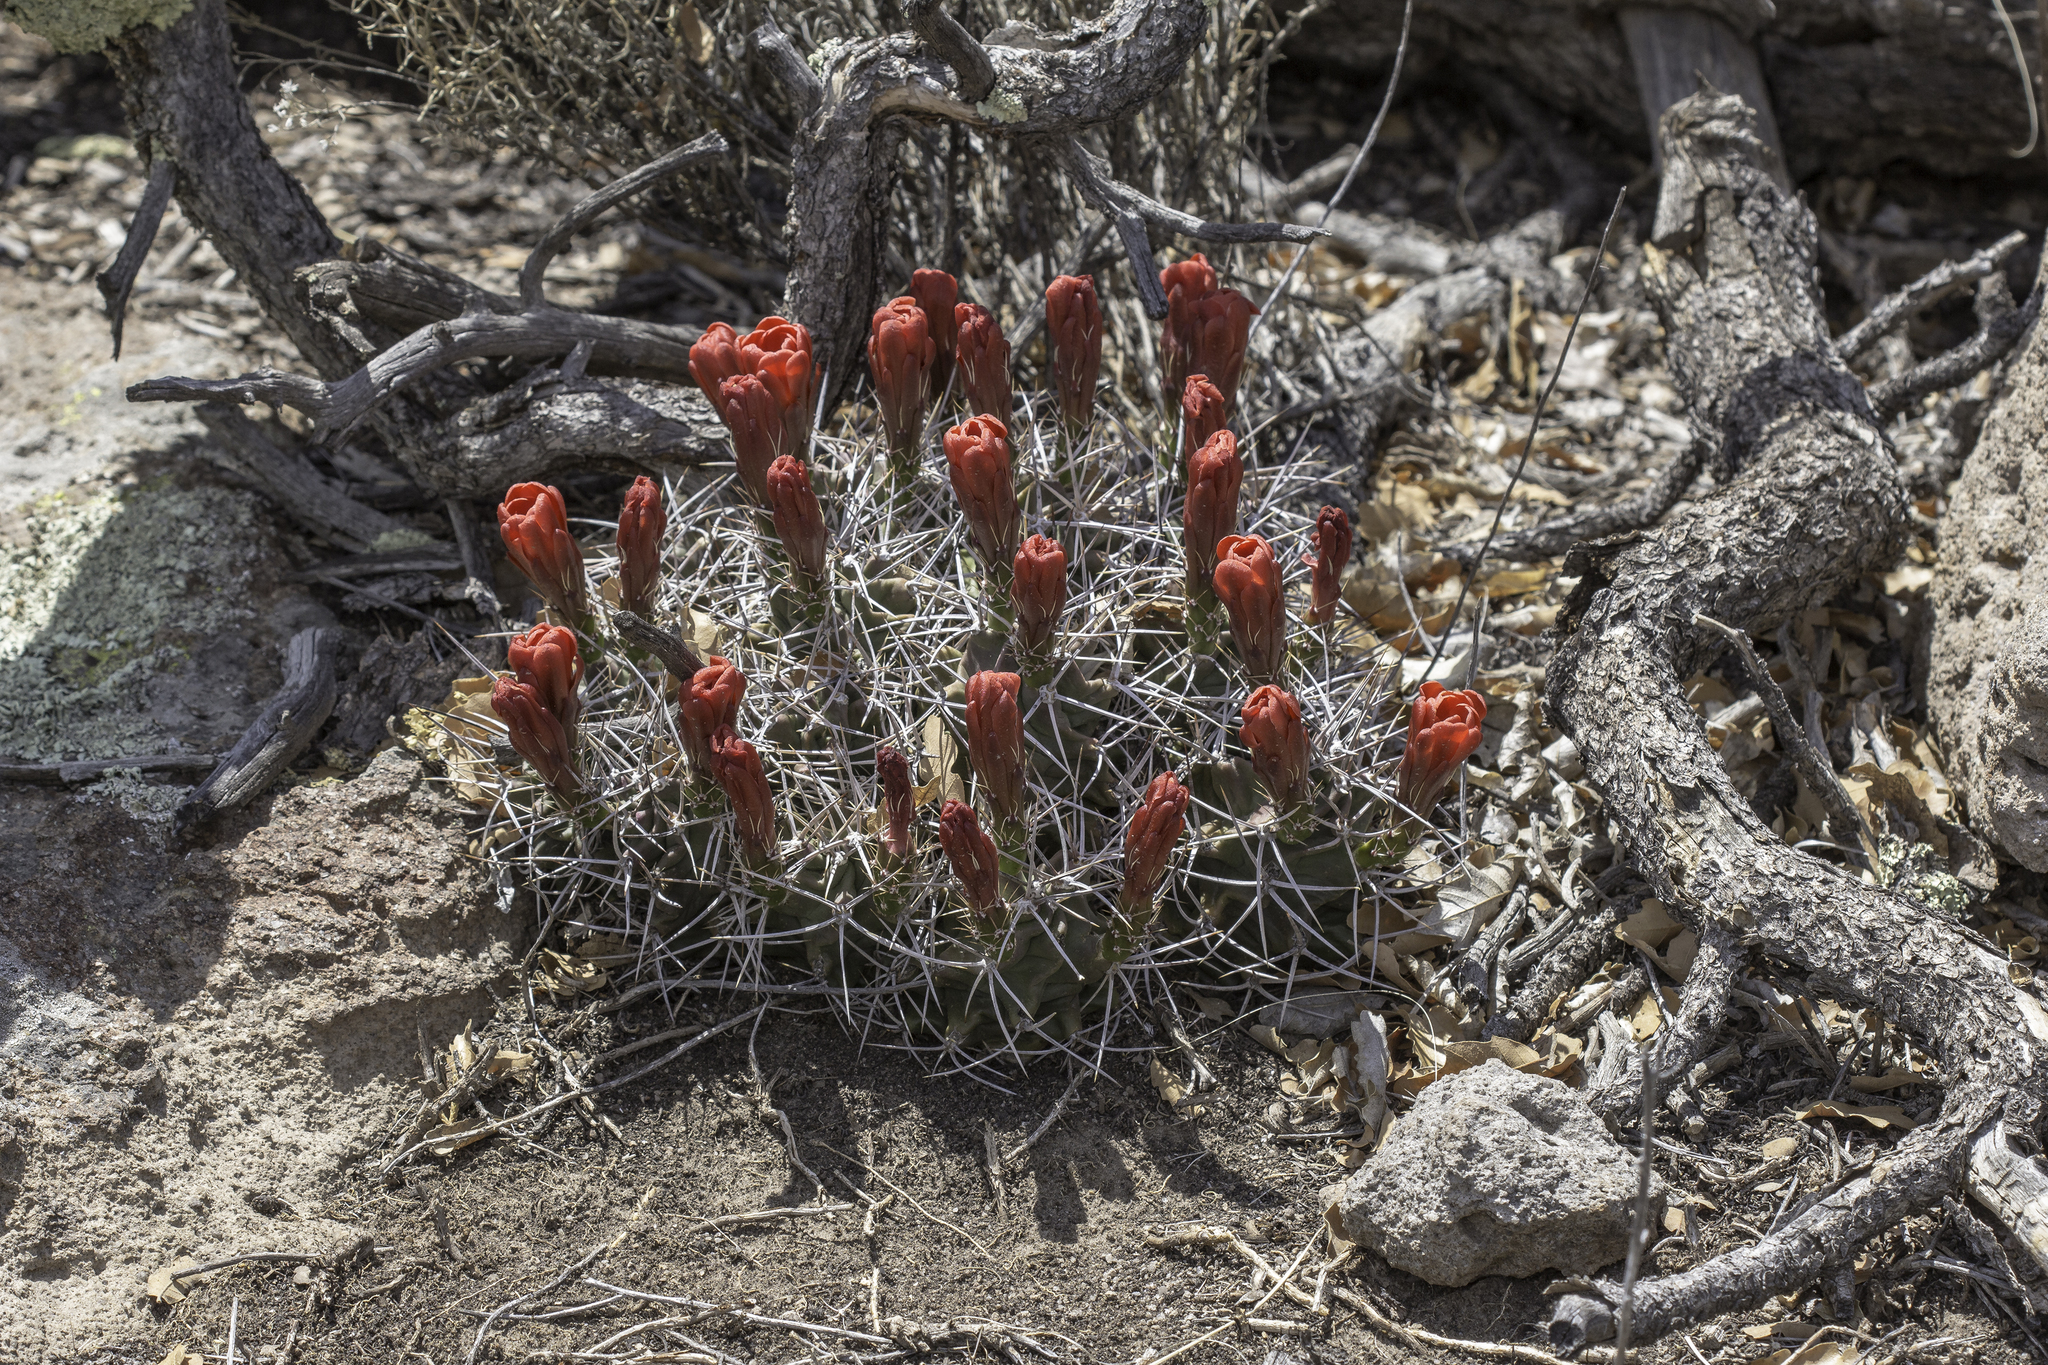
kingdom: Plantae
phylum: Tracheophyta
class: Magnoliopsida
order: Caryophyllales
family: Cactaceae
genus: Echinocereus
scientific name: Echinocereus triglochidiatus
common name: Claretcup hedgehog
